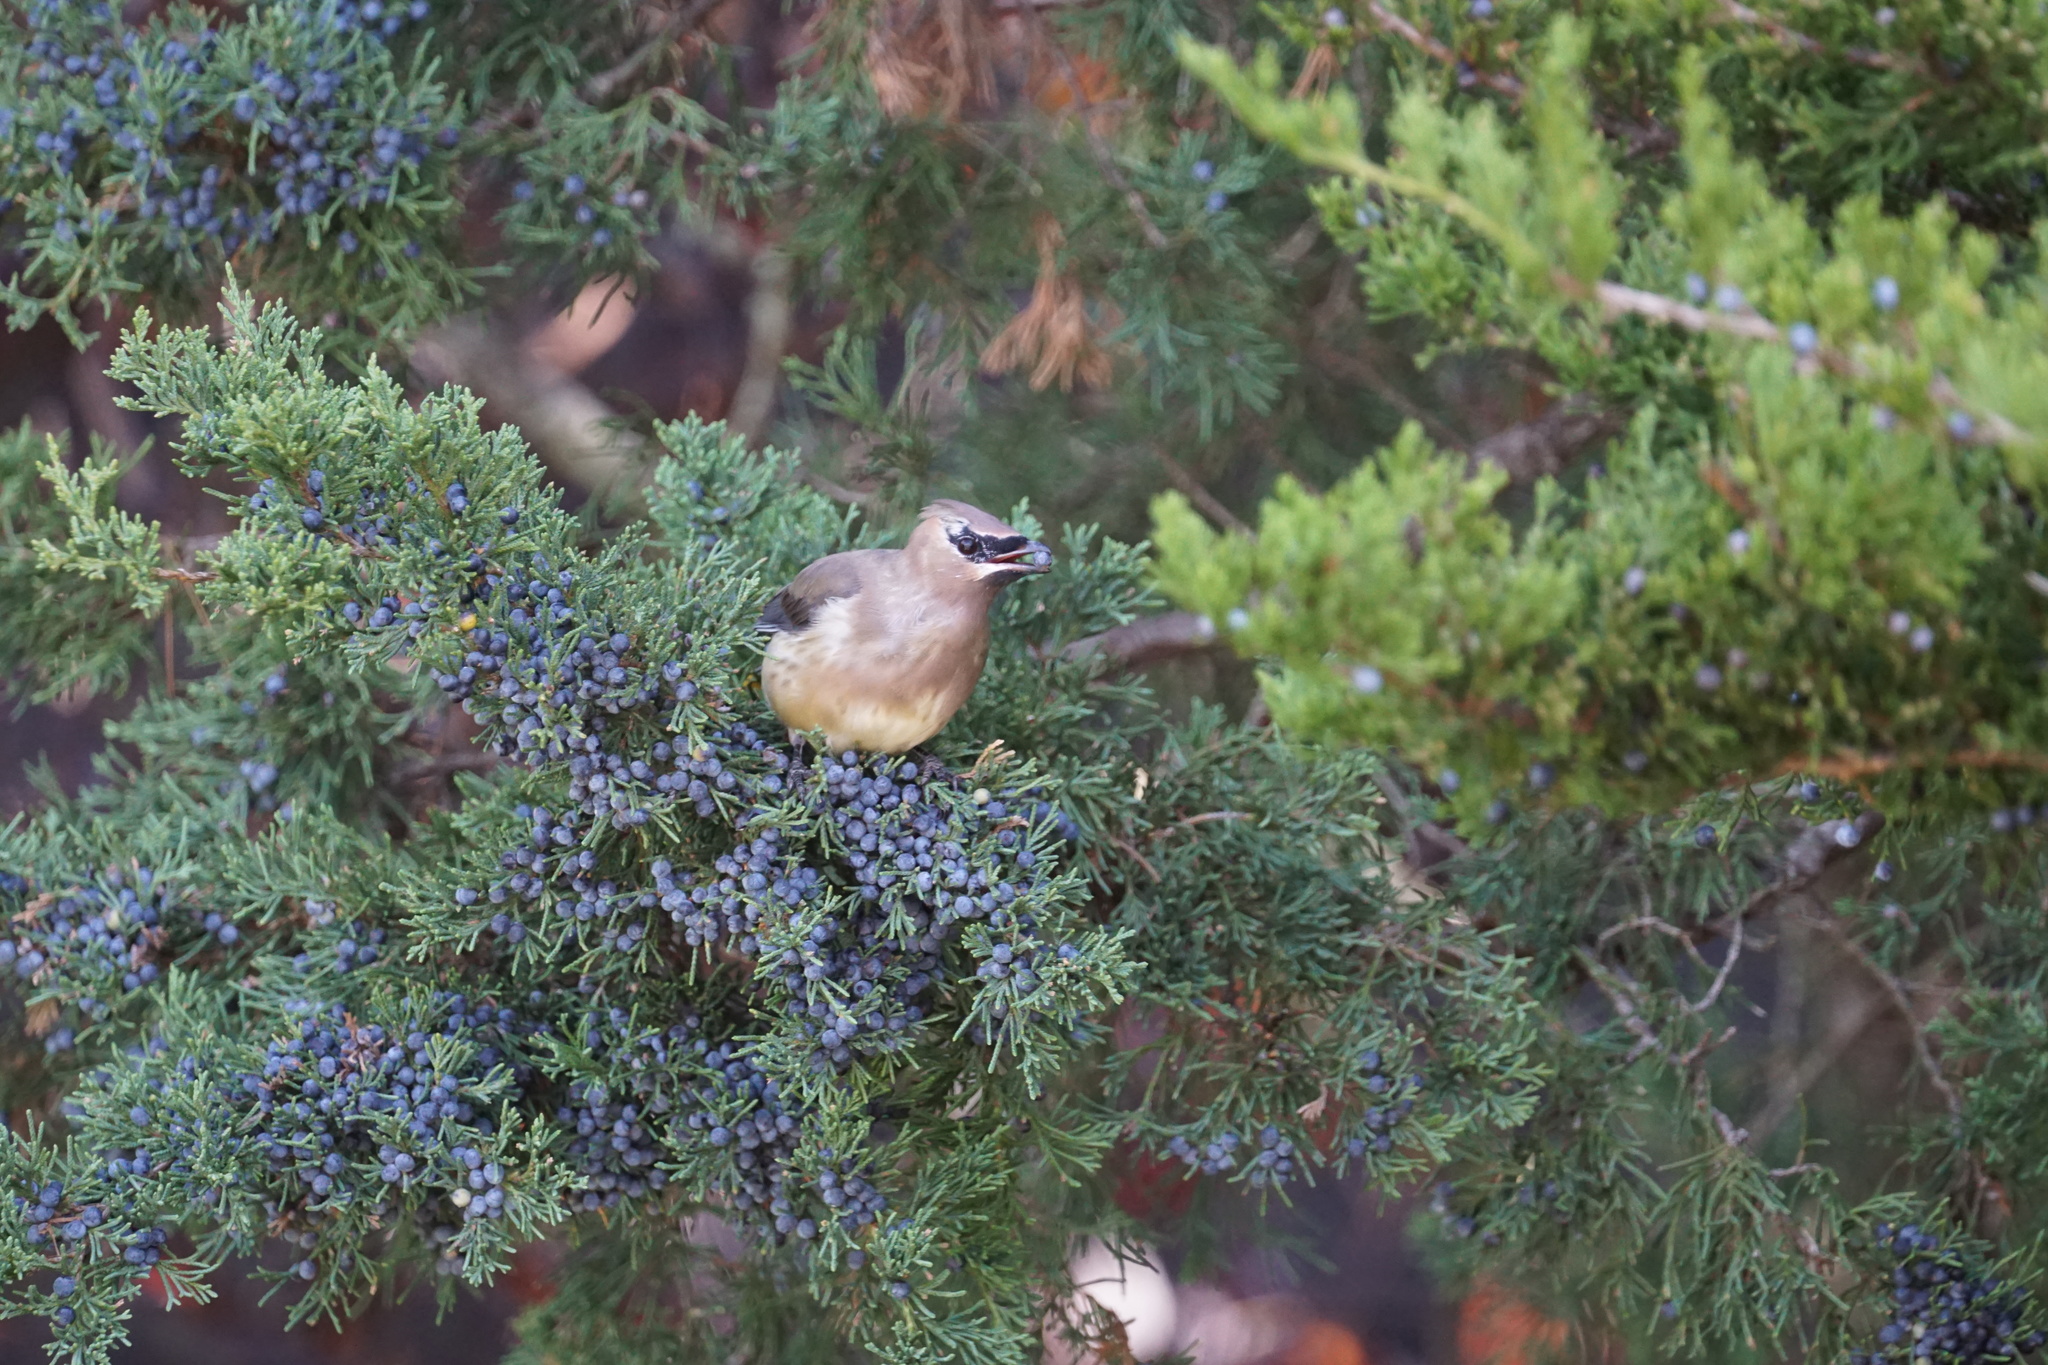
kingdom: Animalia
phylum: Chordata
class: Aves
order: Passeriformes
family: Bombycillidae
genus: Bombycilla
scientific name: Bombycilla cedrorum
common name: Cedar waxwing
